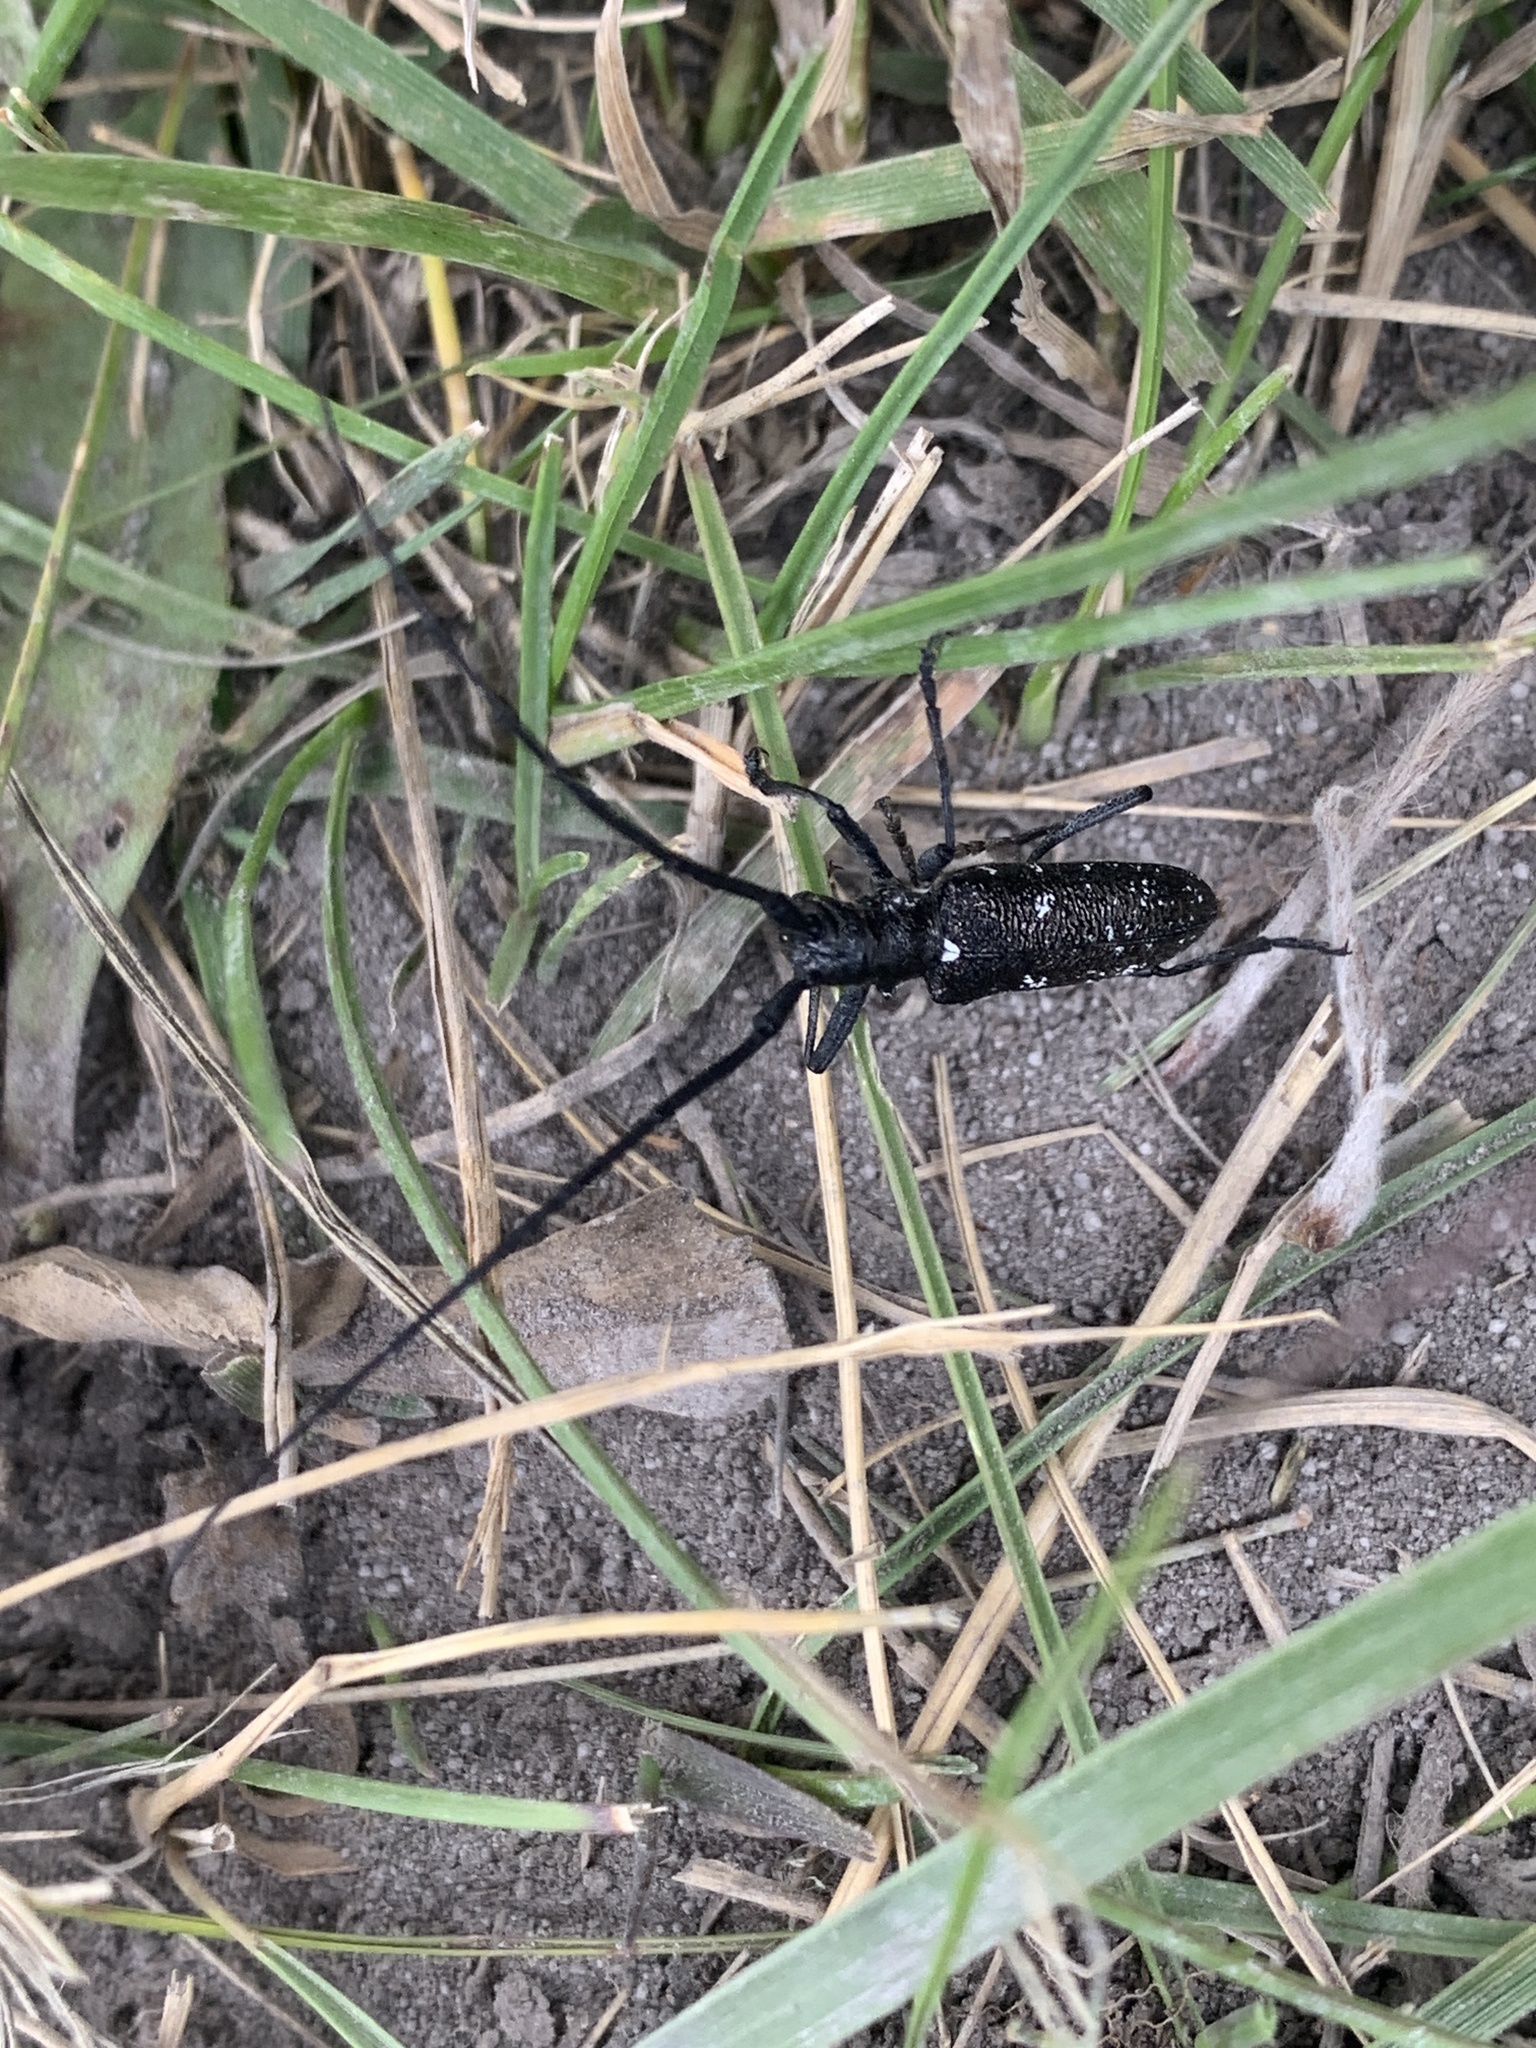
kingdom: Animalia
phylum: Arthropoda
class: Insecta
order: Coleoptera
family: Cerambycidae
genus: Monochamus
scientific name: Monochamus scutellatus
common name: White-spotted sawyer beetle
